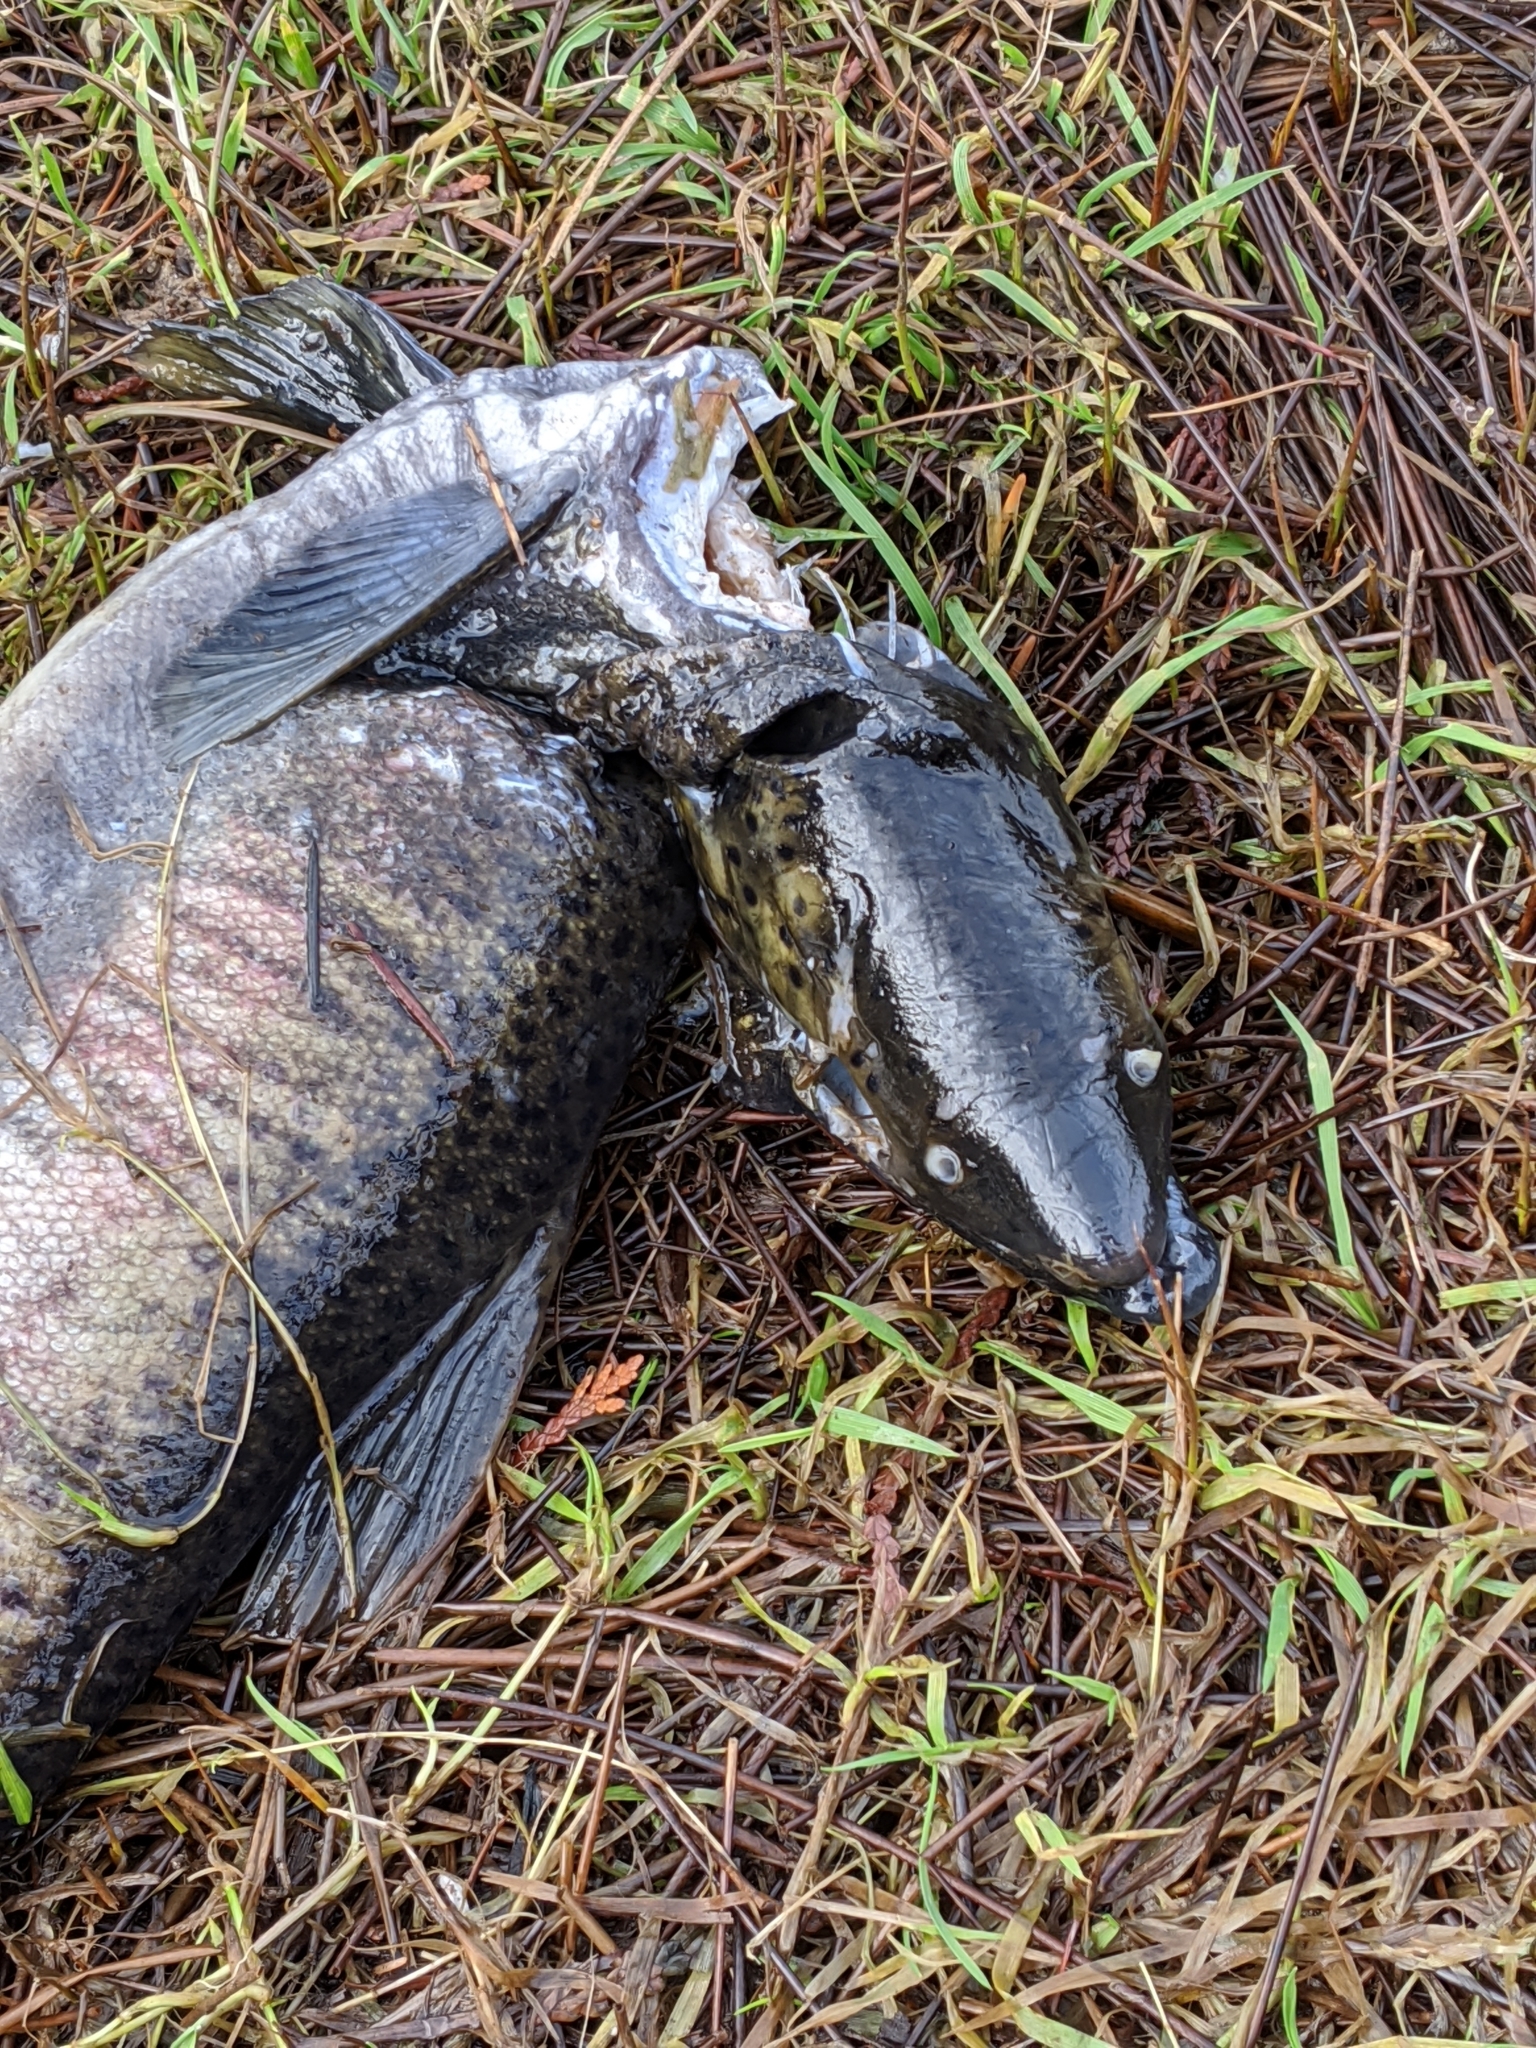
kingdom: Animalia
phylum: Chordata
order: Salmoniformes
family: Salmonidae
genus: Oncorhynchus
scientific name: Oncorhynchus kisutch
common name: Coho salmon
